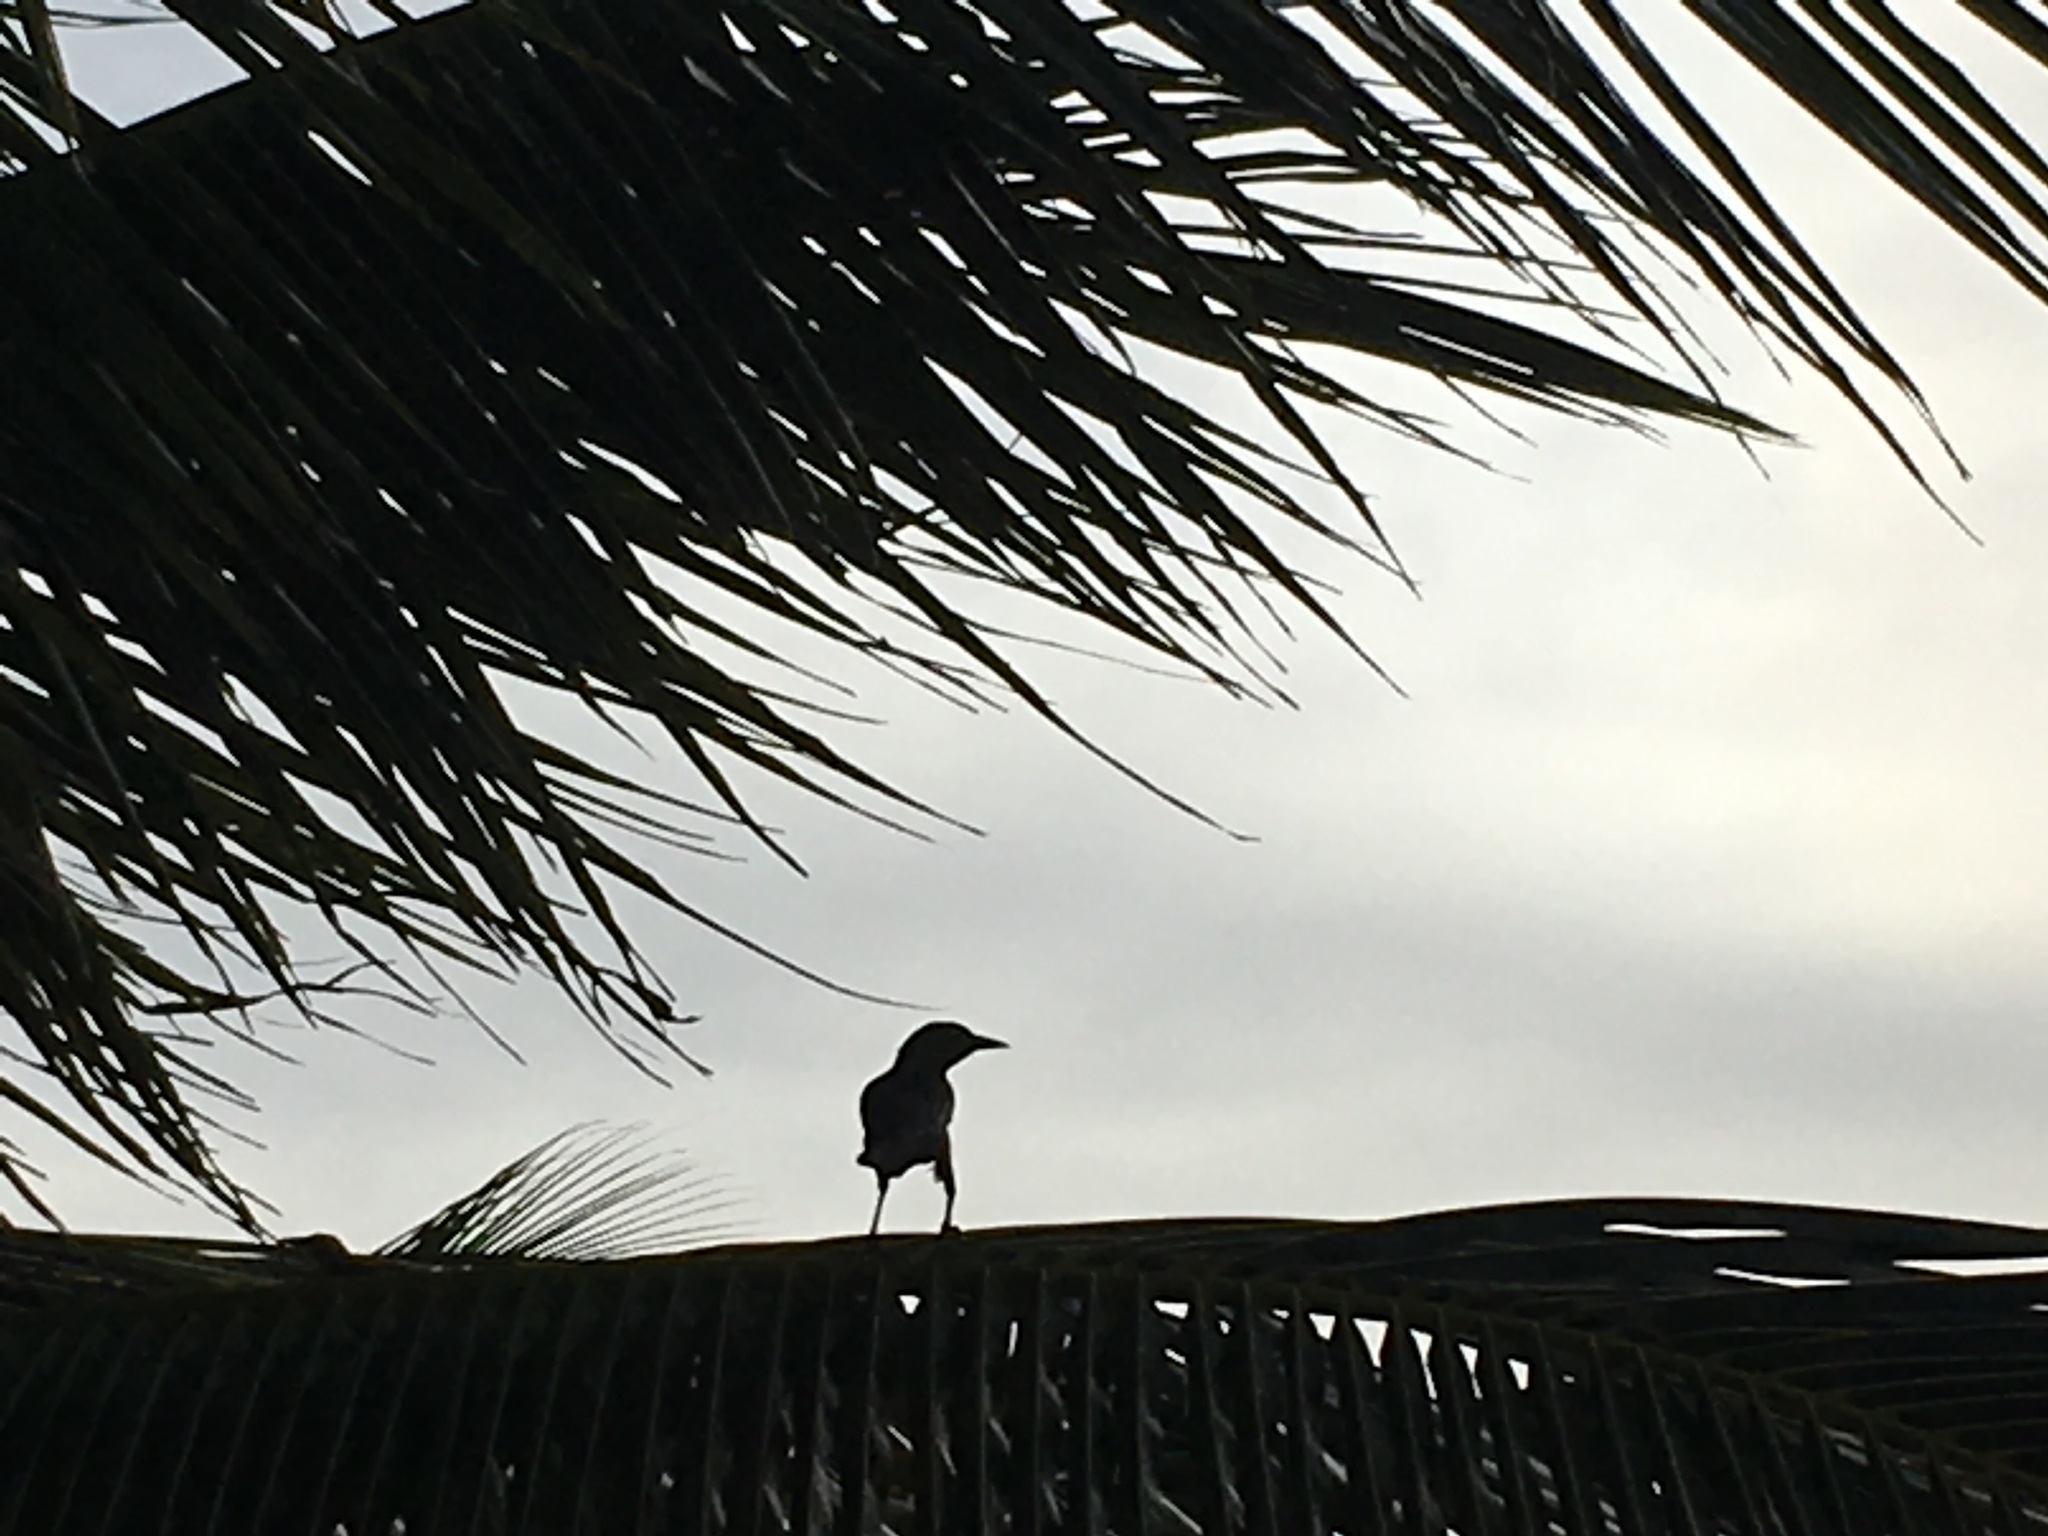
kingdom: Animalia
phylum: Chordata
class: Aves
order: Passeriformes
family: Icteridae
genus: Quiscalus
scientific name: Quiscalus mexicanus
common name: Great-tailed grackle
